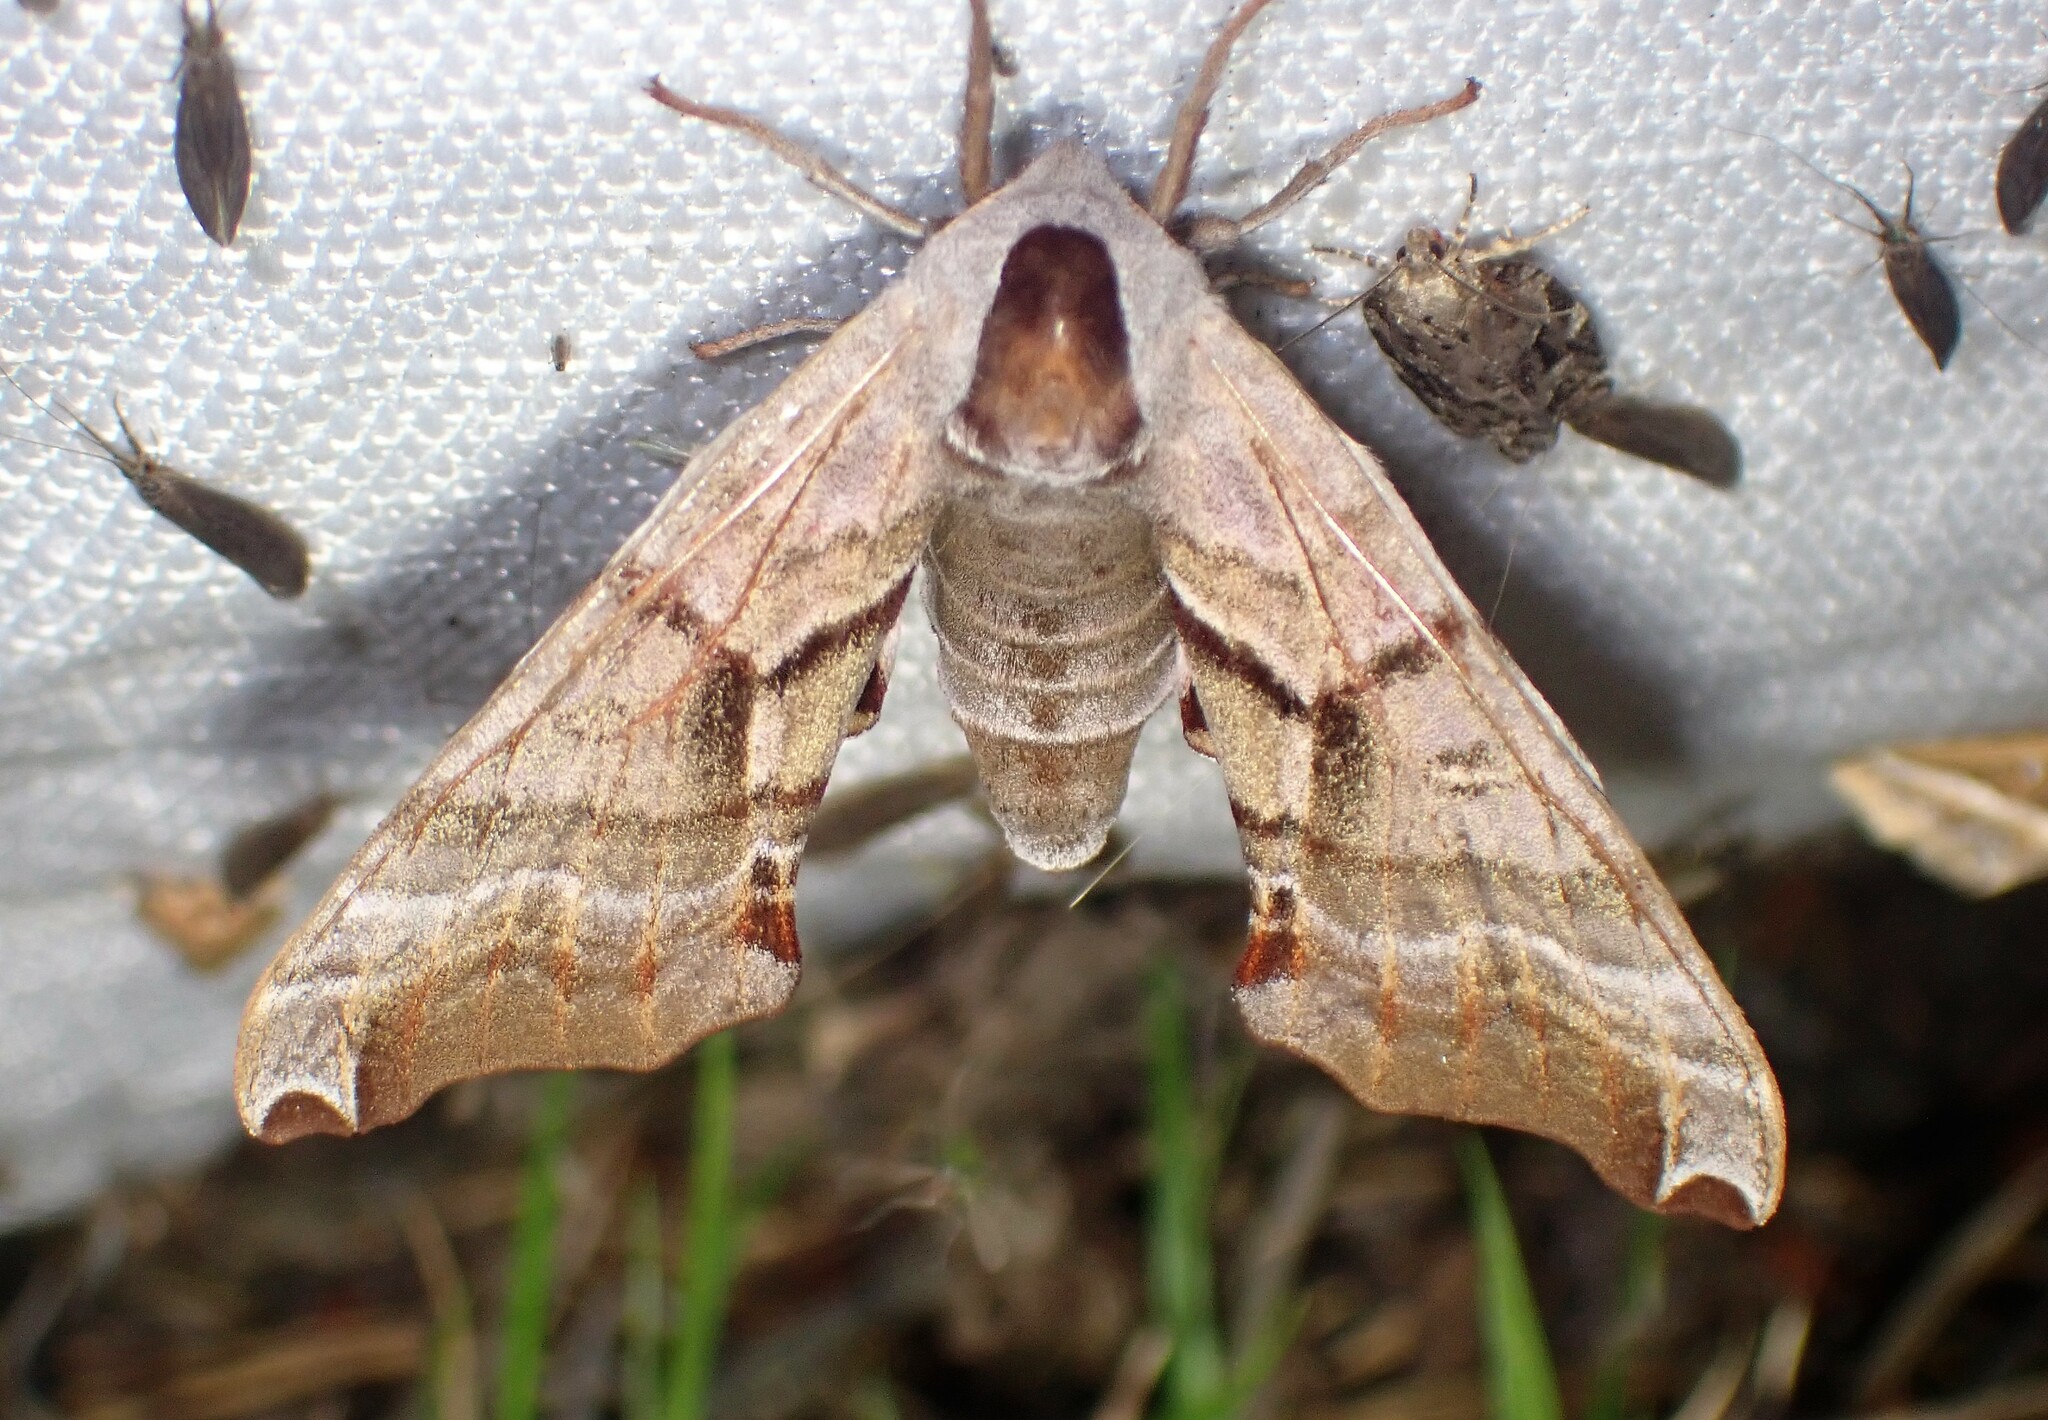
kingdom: Animalia
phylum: Arthropoda
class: Insecta
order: Lepidoptera
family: Sphingidae
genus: Smerinthus
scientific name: Smerinthus jamaicensis
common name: Twin spotted sphinx
